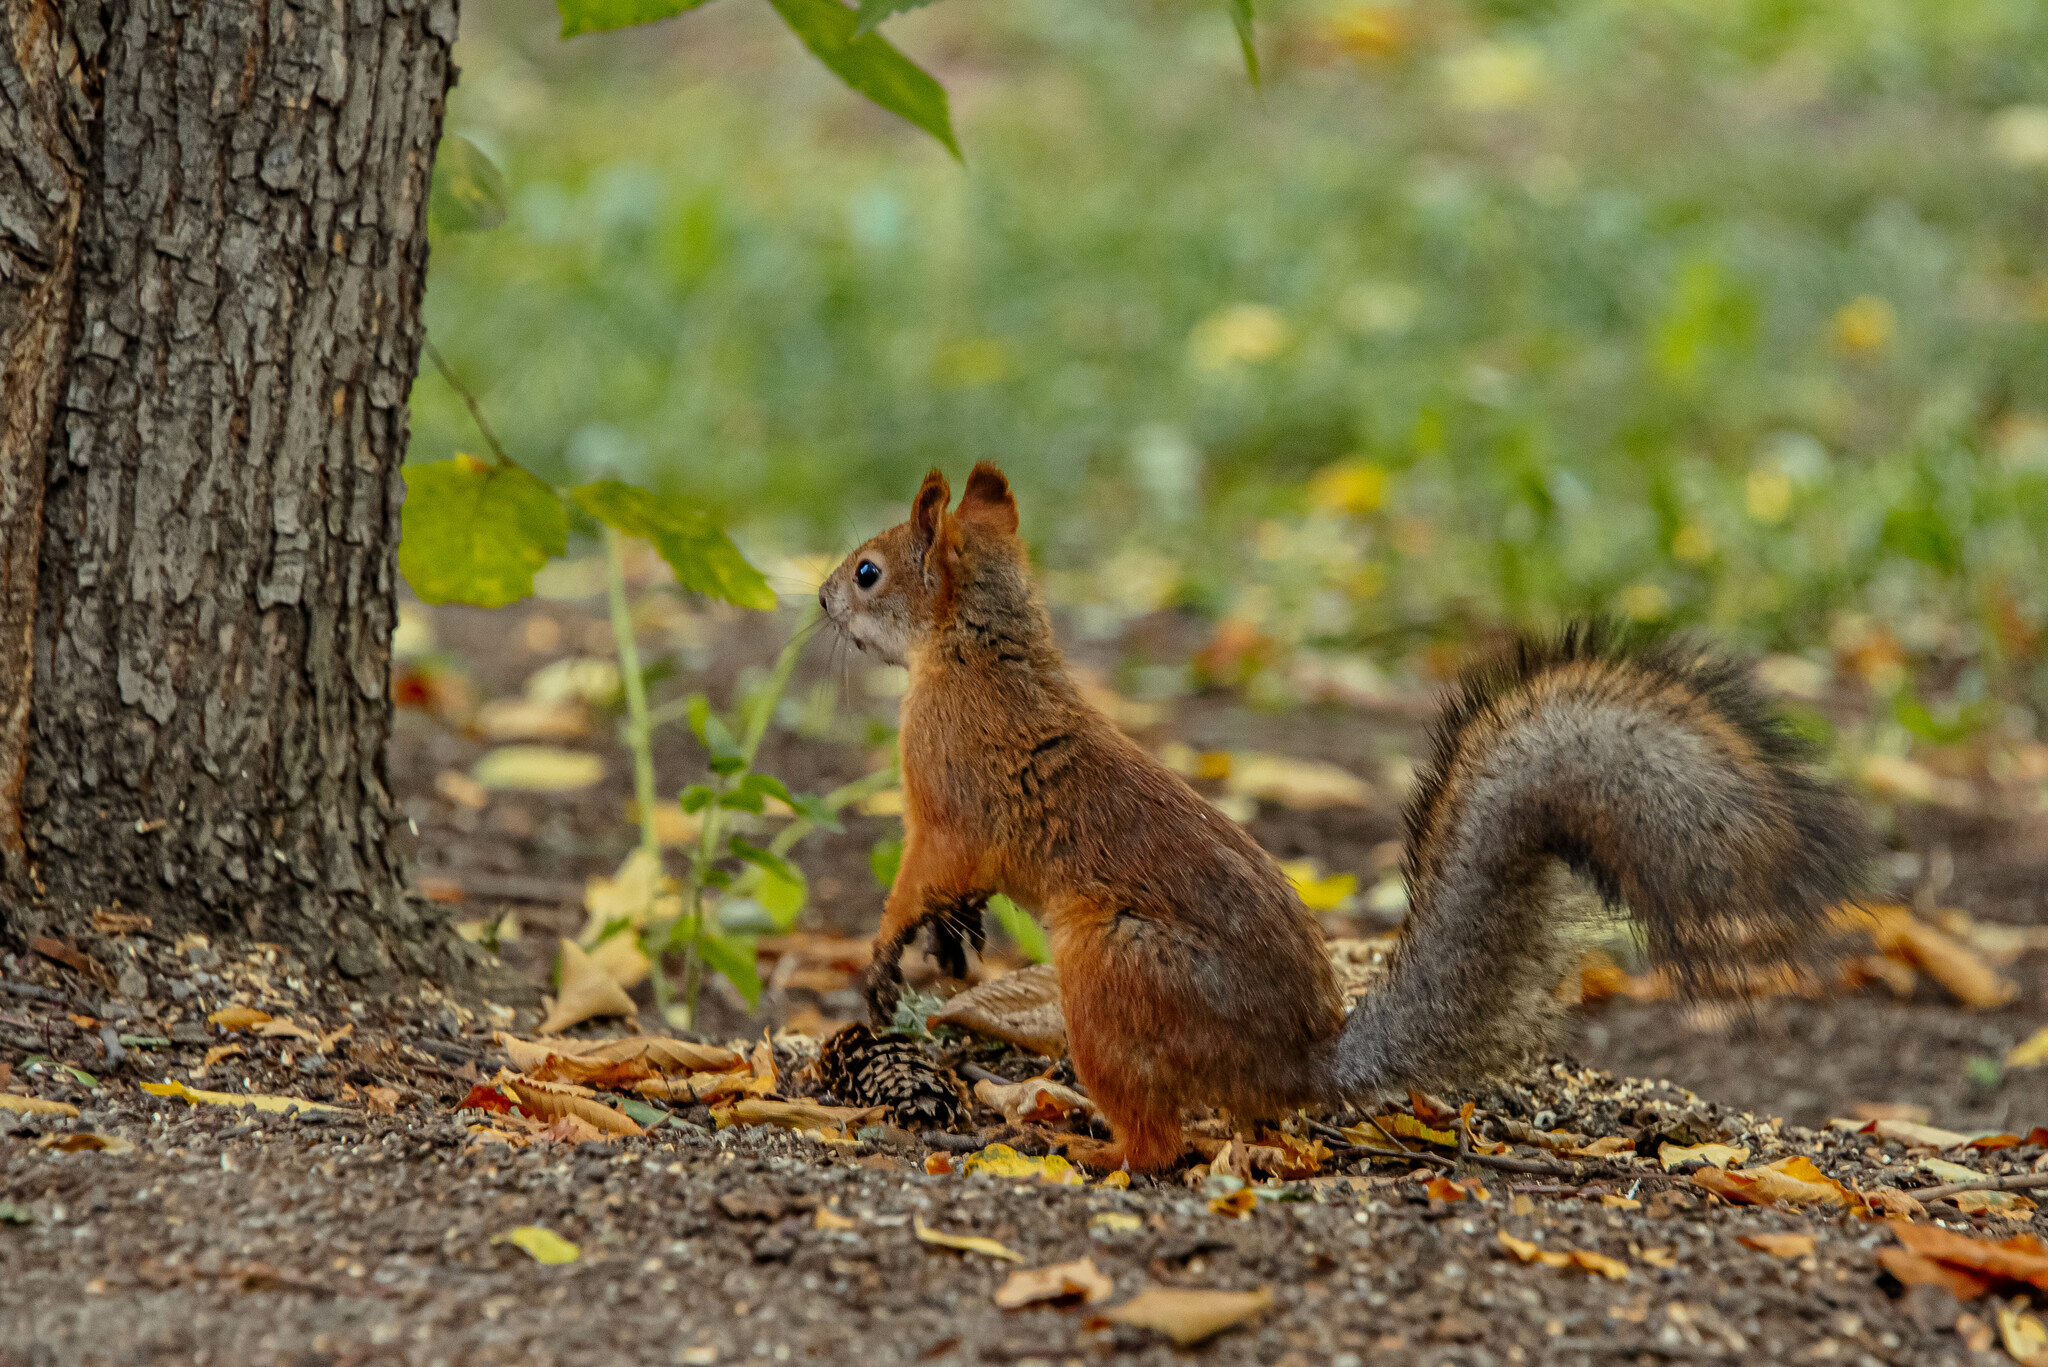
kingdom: Animalia
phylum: Chordata
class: Mammalia
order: Rodentia
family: Sciuridae
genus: Sciurus
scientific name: Sciurus vulgaris
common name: Eurasian red squirrel
